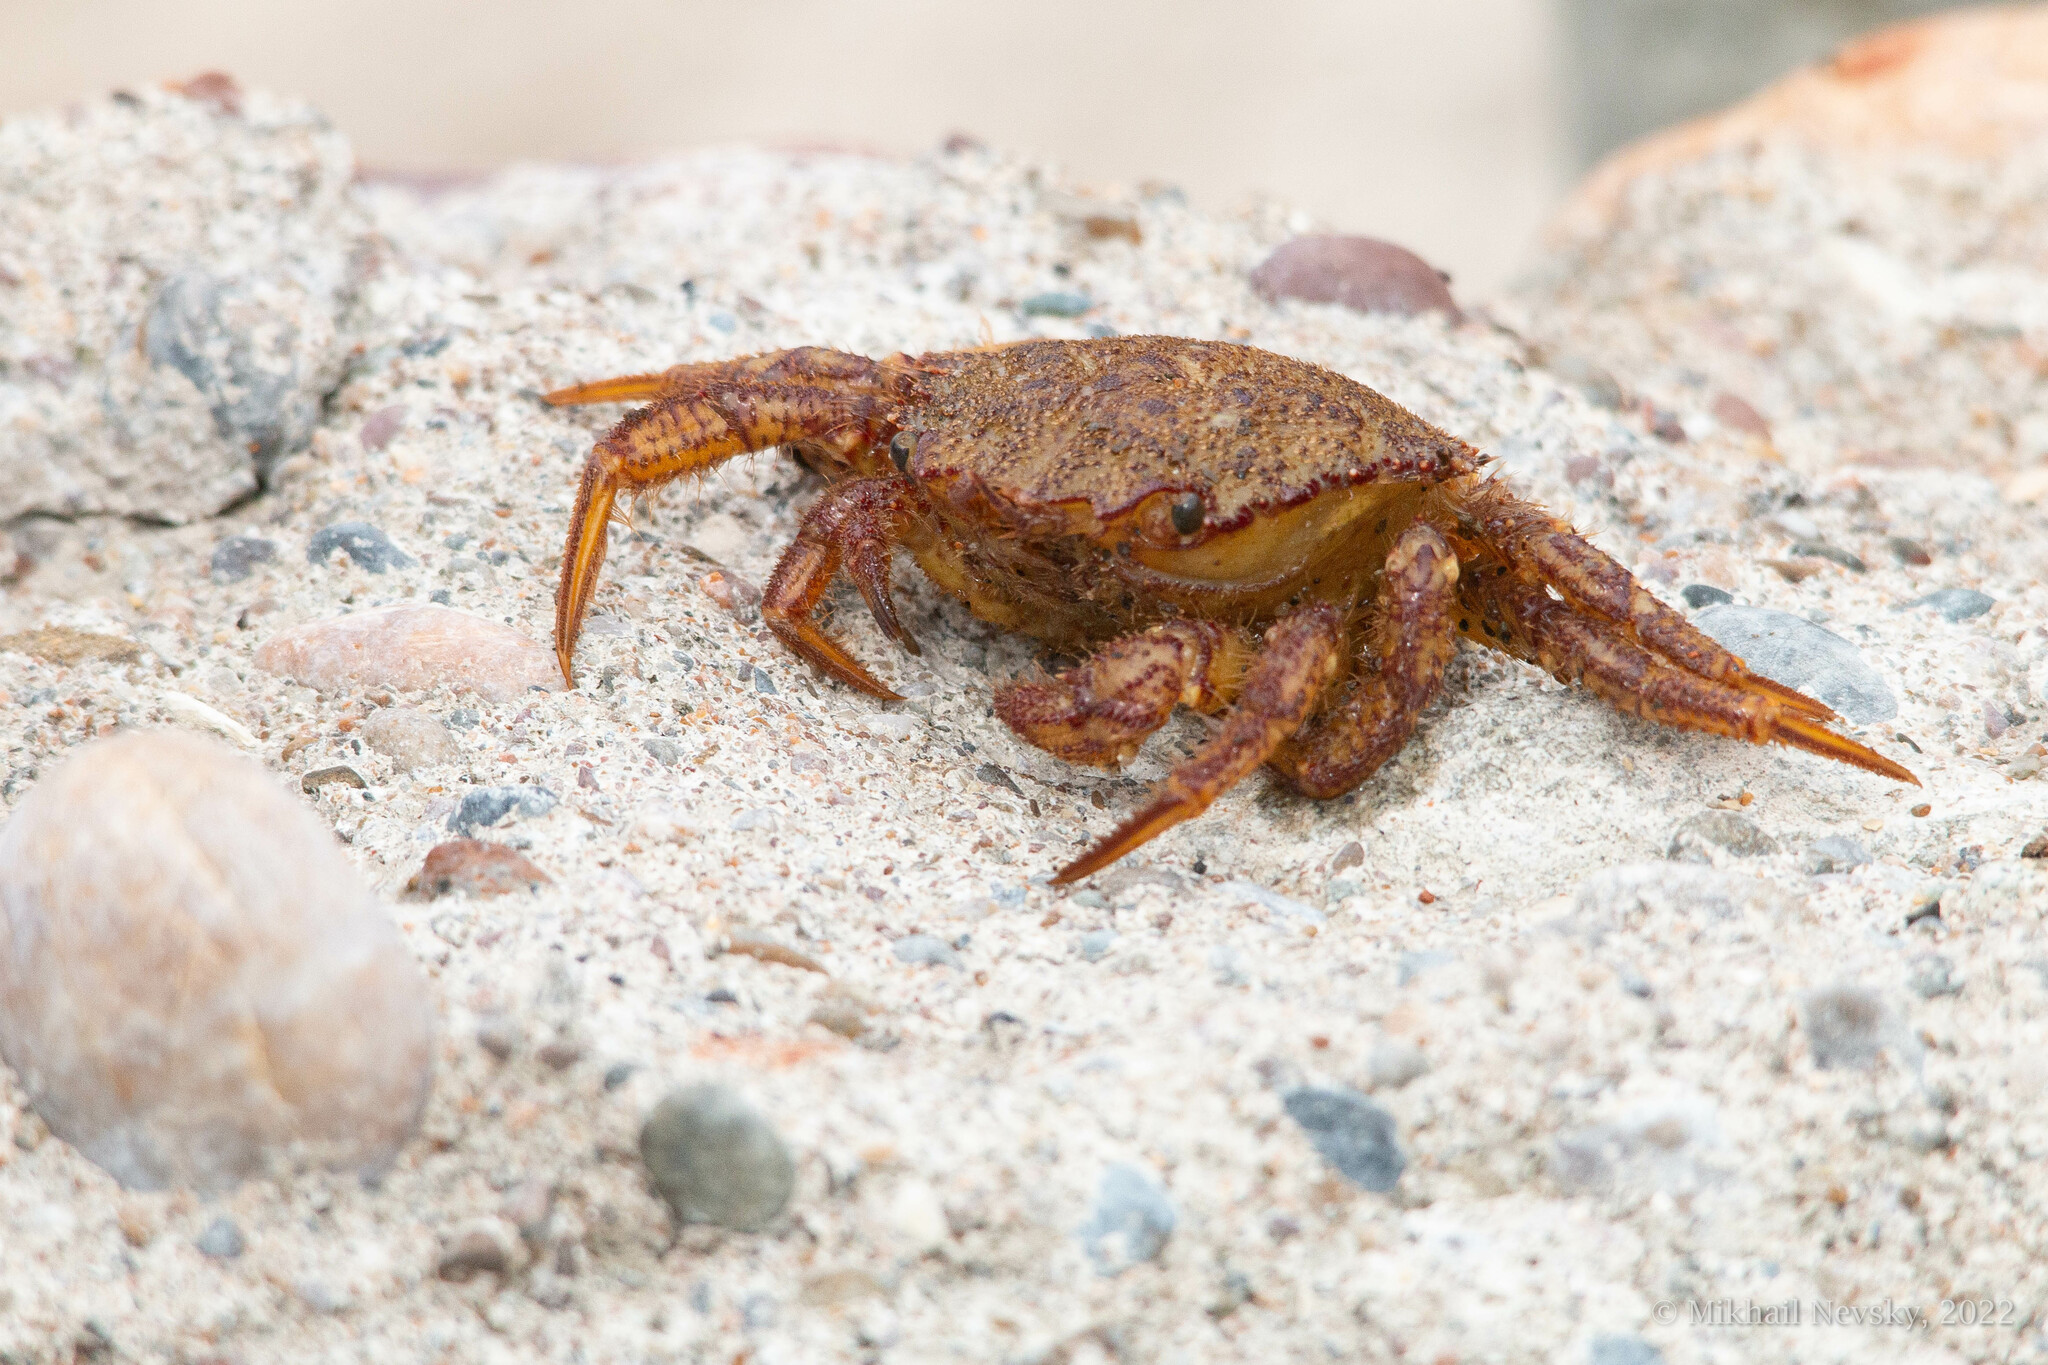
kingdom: Animalia
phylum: Arthropoda
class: Malacostraca
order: Decapoda
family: Cheiragonidae
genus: Telmessus
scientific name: Telmessus cheiragonus
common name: Helmet crab
